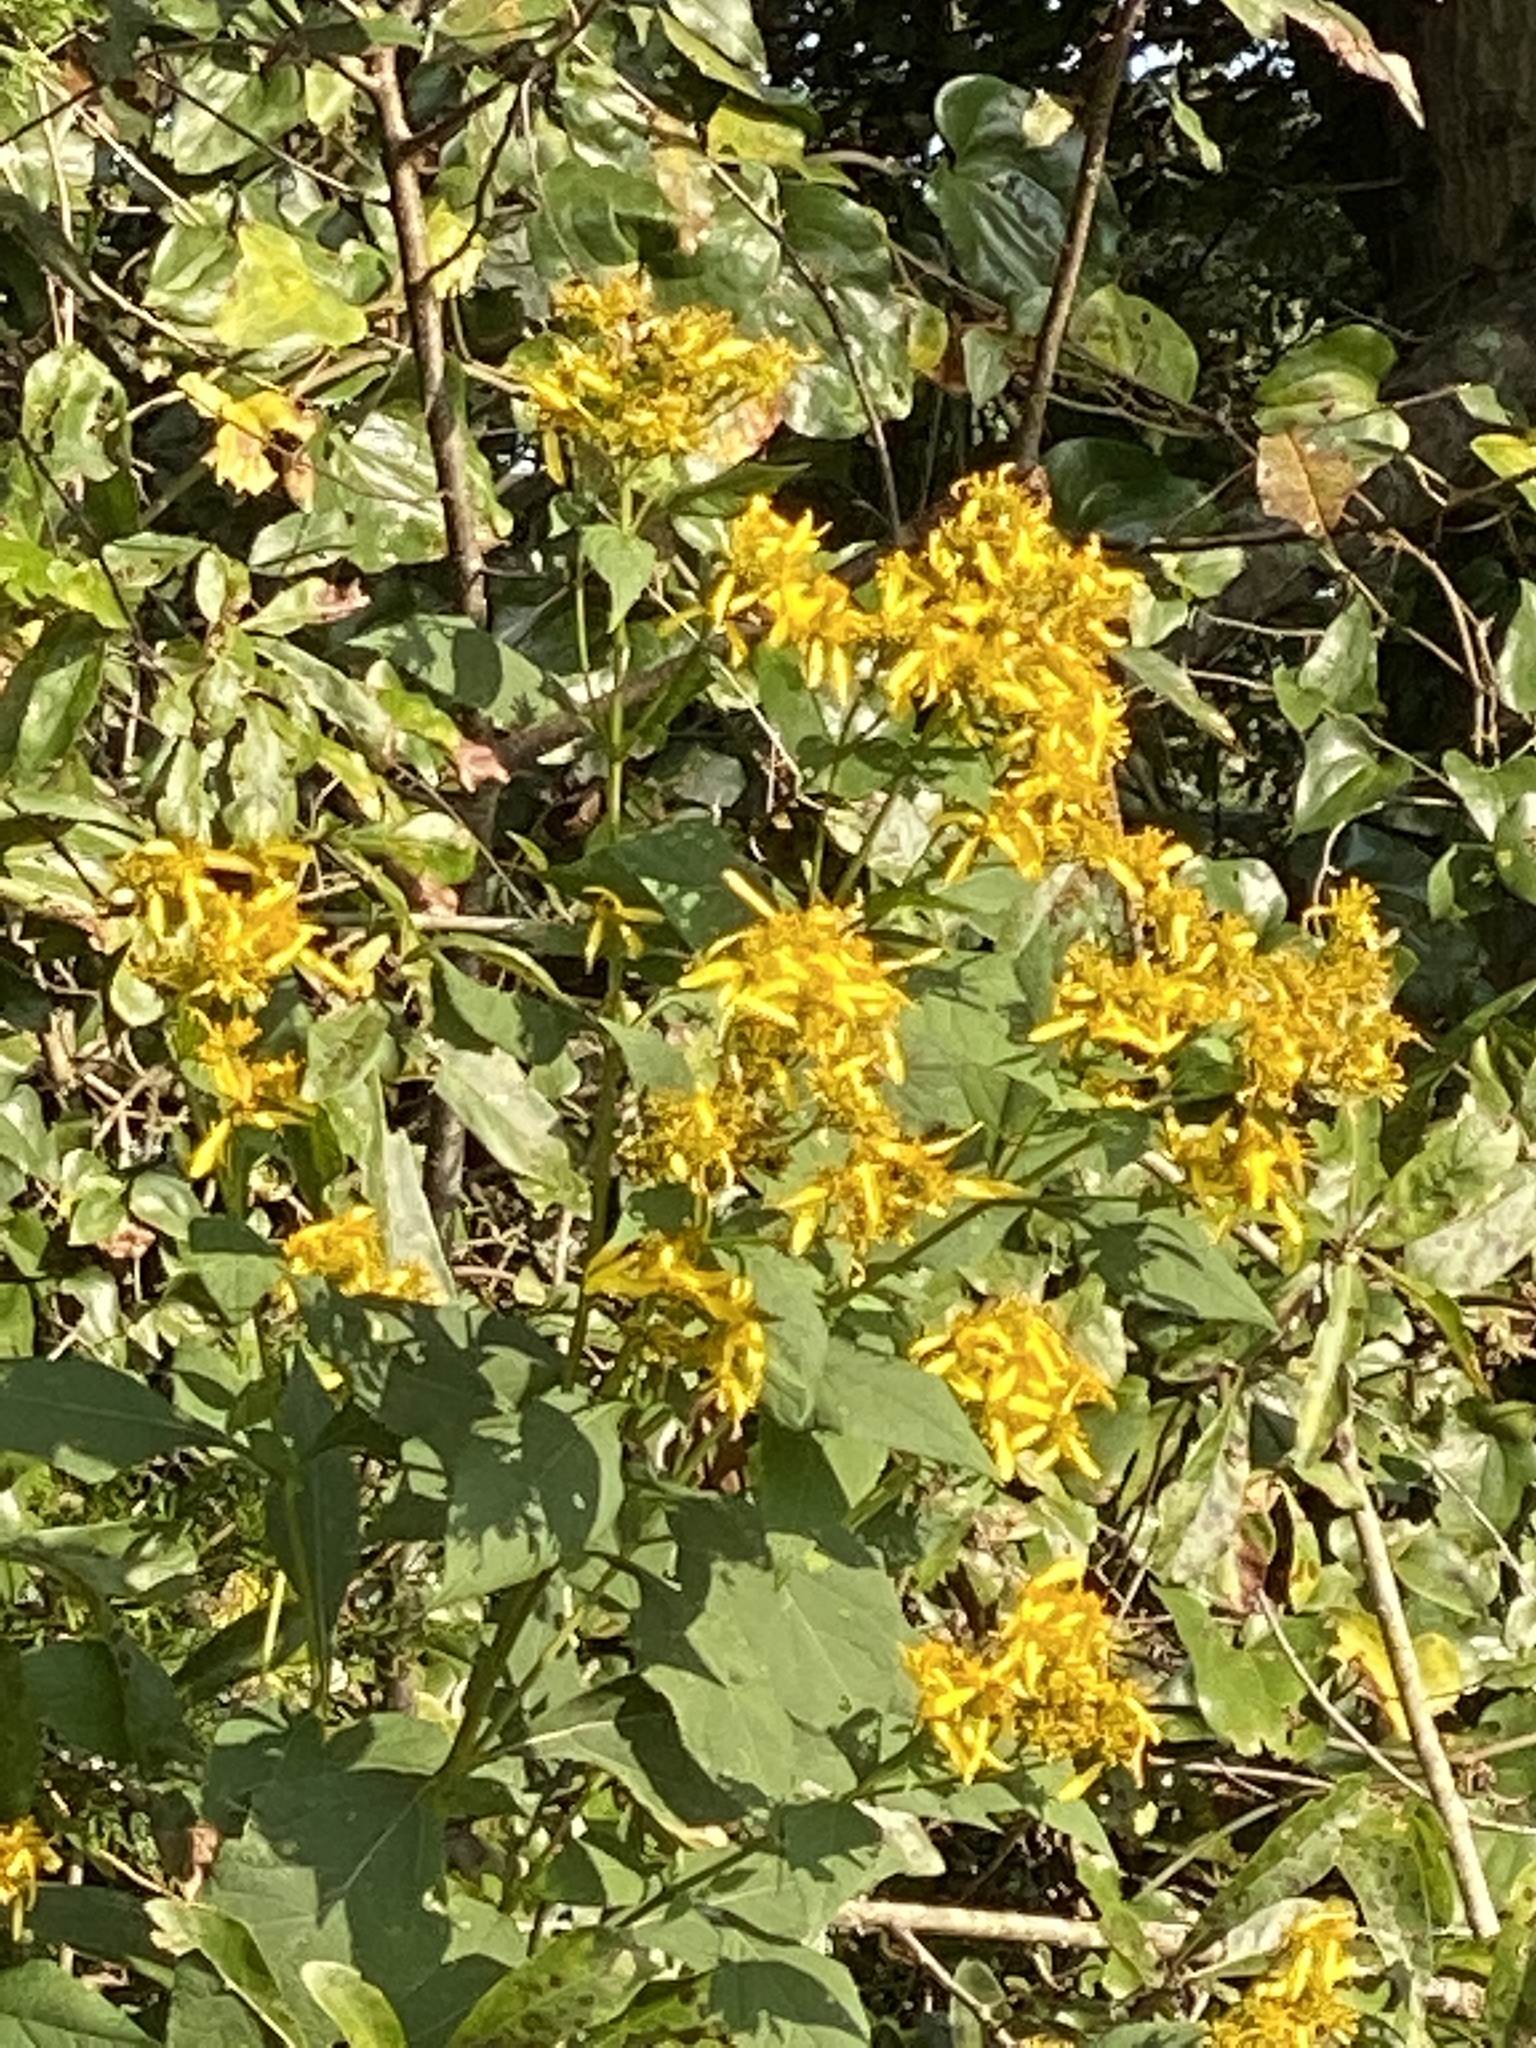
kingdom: Plantae
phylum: Tracheophyta
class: Magnoliopsida
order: Asterales
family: Asteraceae
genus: Verbesina
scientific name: Verbesina occidentalis
